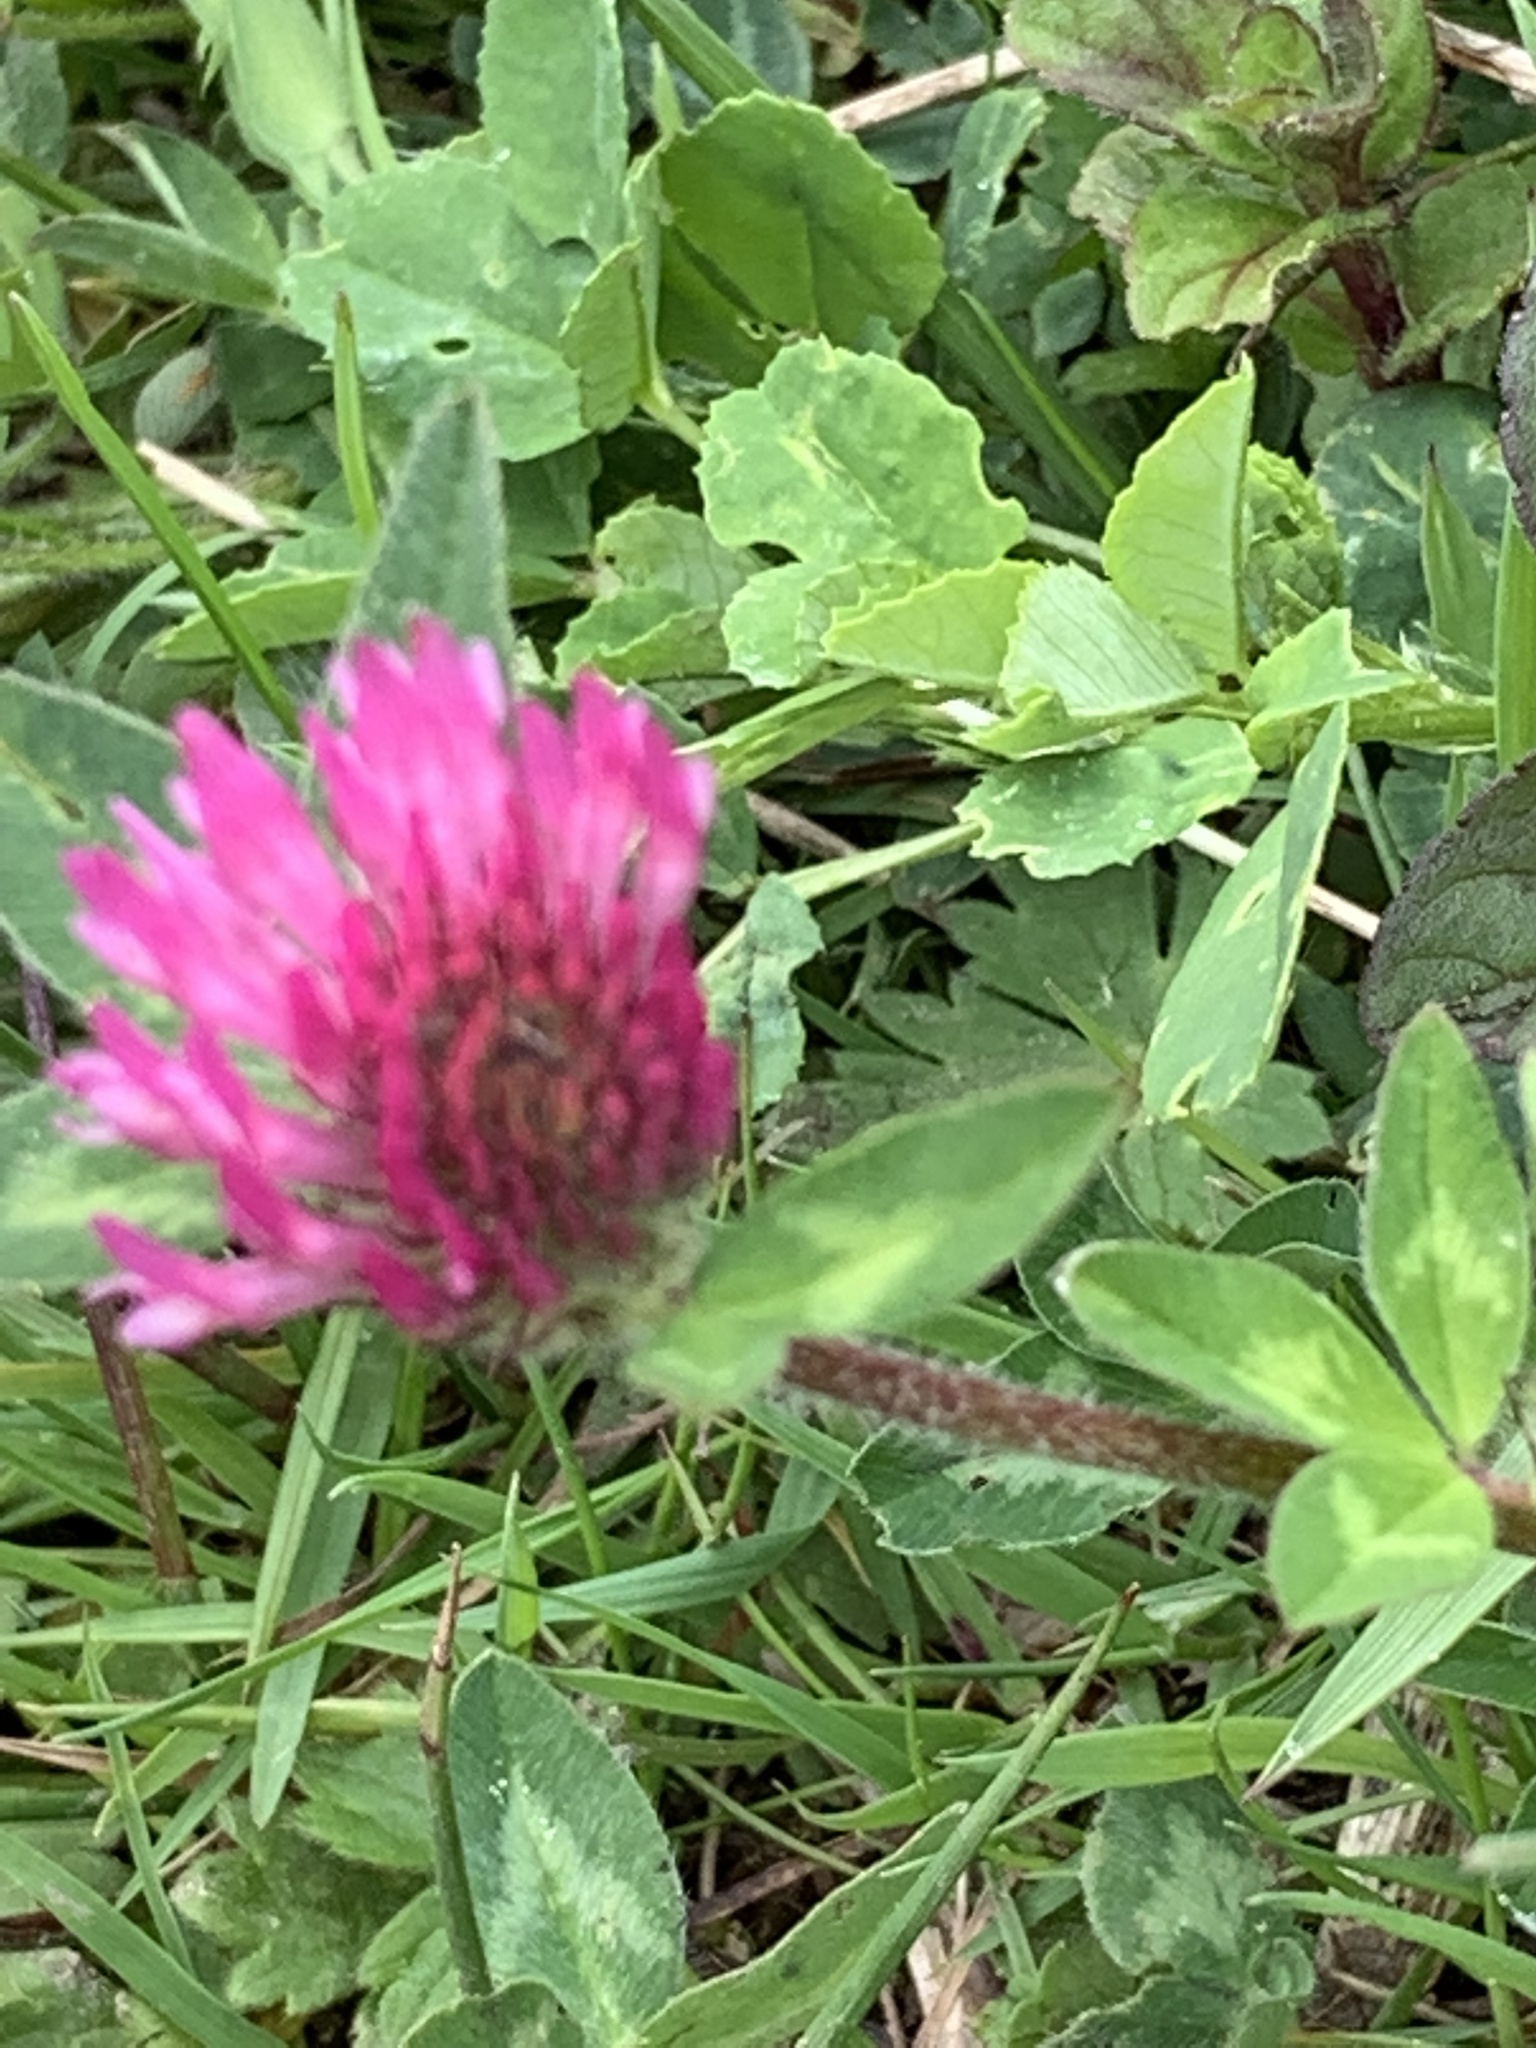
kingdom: Plantae
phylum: Tracheophyta
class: Magnoliopsida
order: Fabales
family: Fabaceae
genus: Trifolium
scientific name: Trifolium pratense
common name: Red clover
